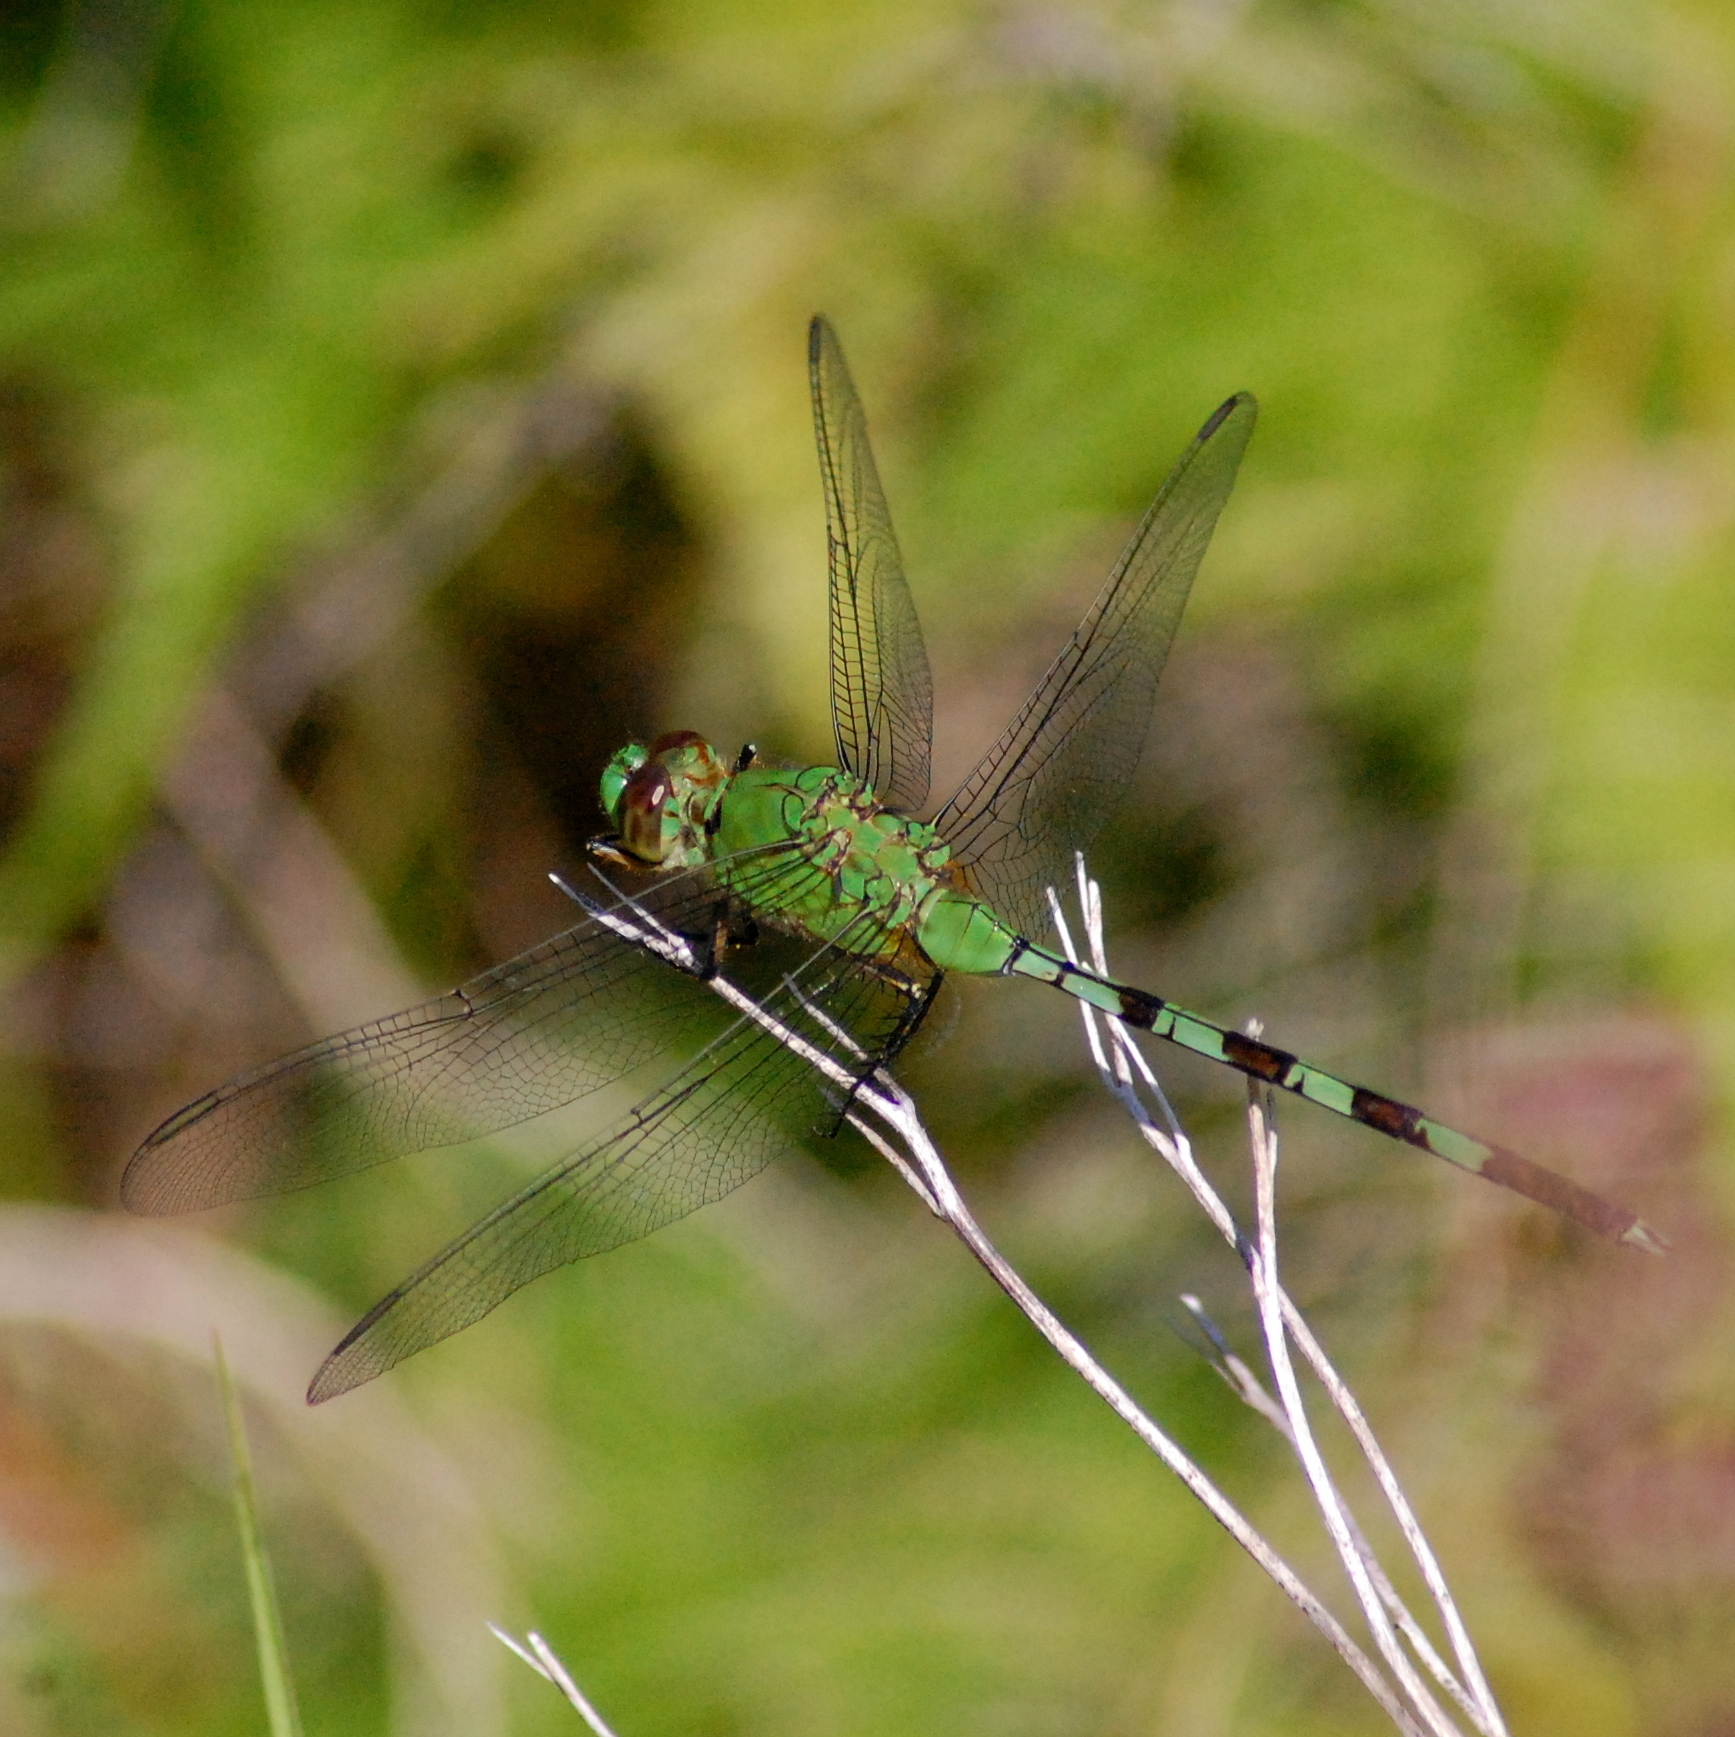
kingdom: Animalia
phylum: Arthropoda
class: Insecta
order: Odonata
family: Libellulidae
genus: Erythemis
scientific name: Erythemis vesiculosa
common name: Great pondhawk
